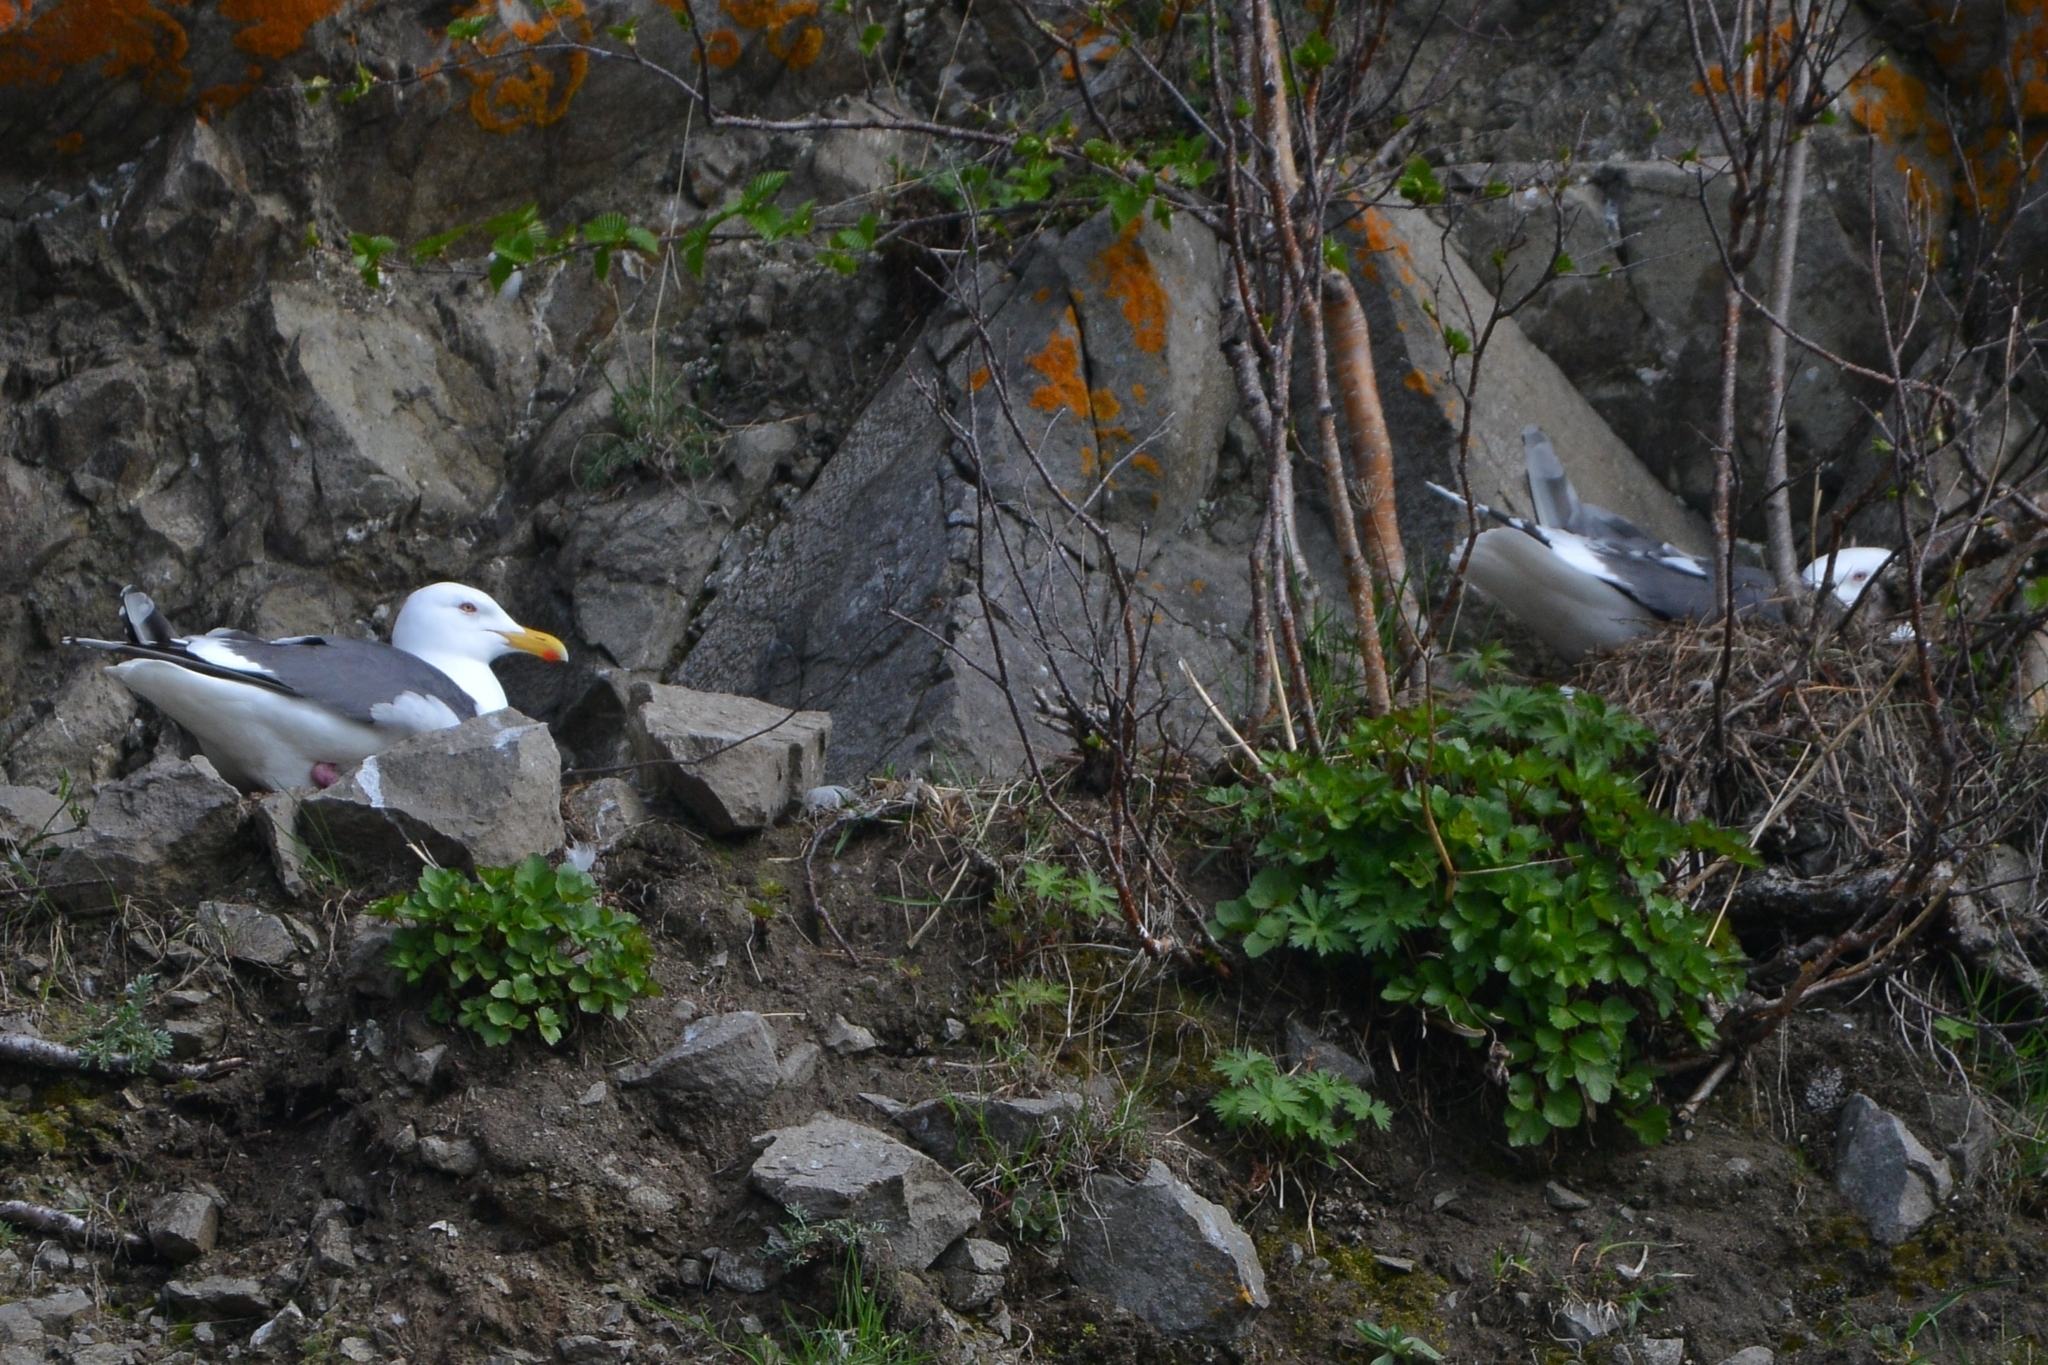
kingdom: Animalia
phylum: Chordata
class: Aves
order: Charadriiformes
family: Laridae
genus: Larus
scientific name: Larus schistisagus
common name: Slaty-backed gull
